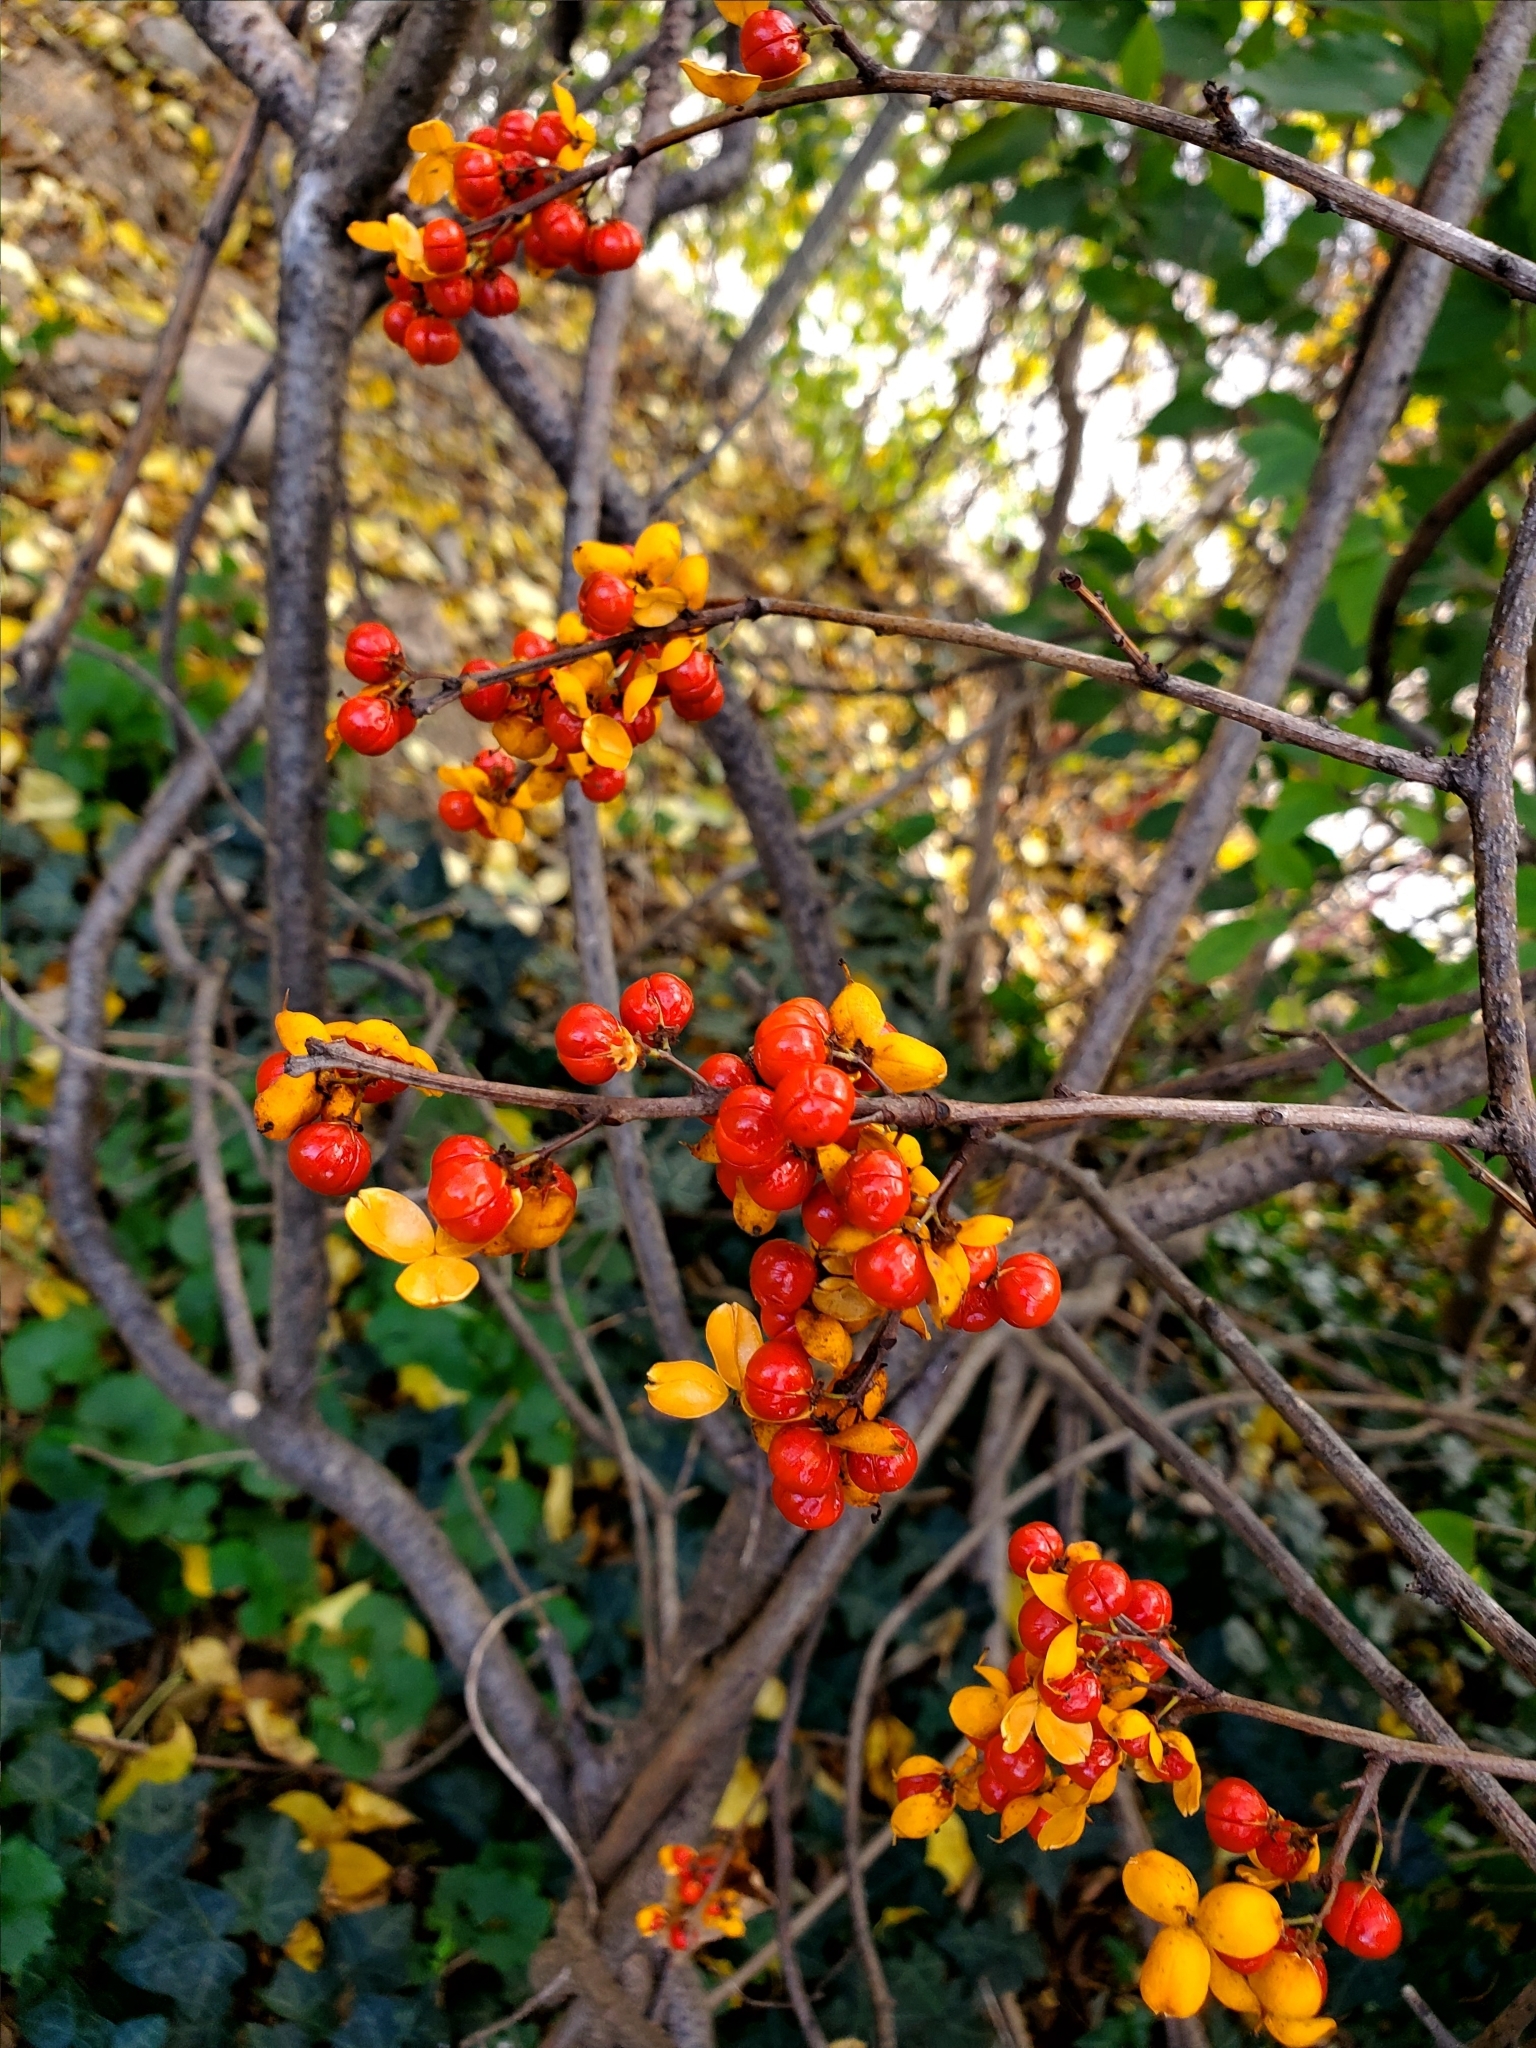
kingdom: Plantae
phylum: Tracheophyta
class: Magnoliopsida
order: Celastrales
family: Celastraceae
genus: Celastrus
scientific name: Celastrus orbiculatus
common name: Oriental bittersweet
